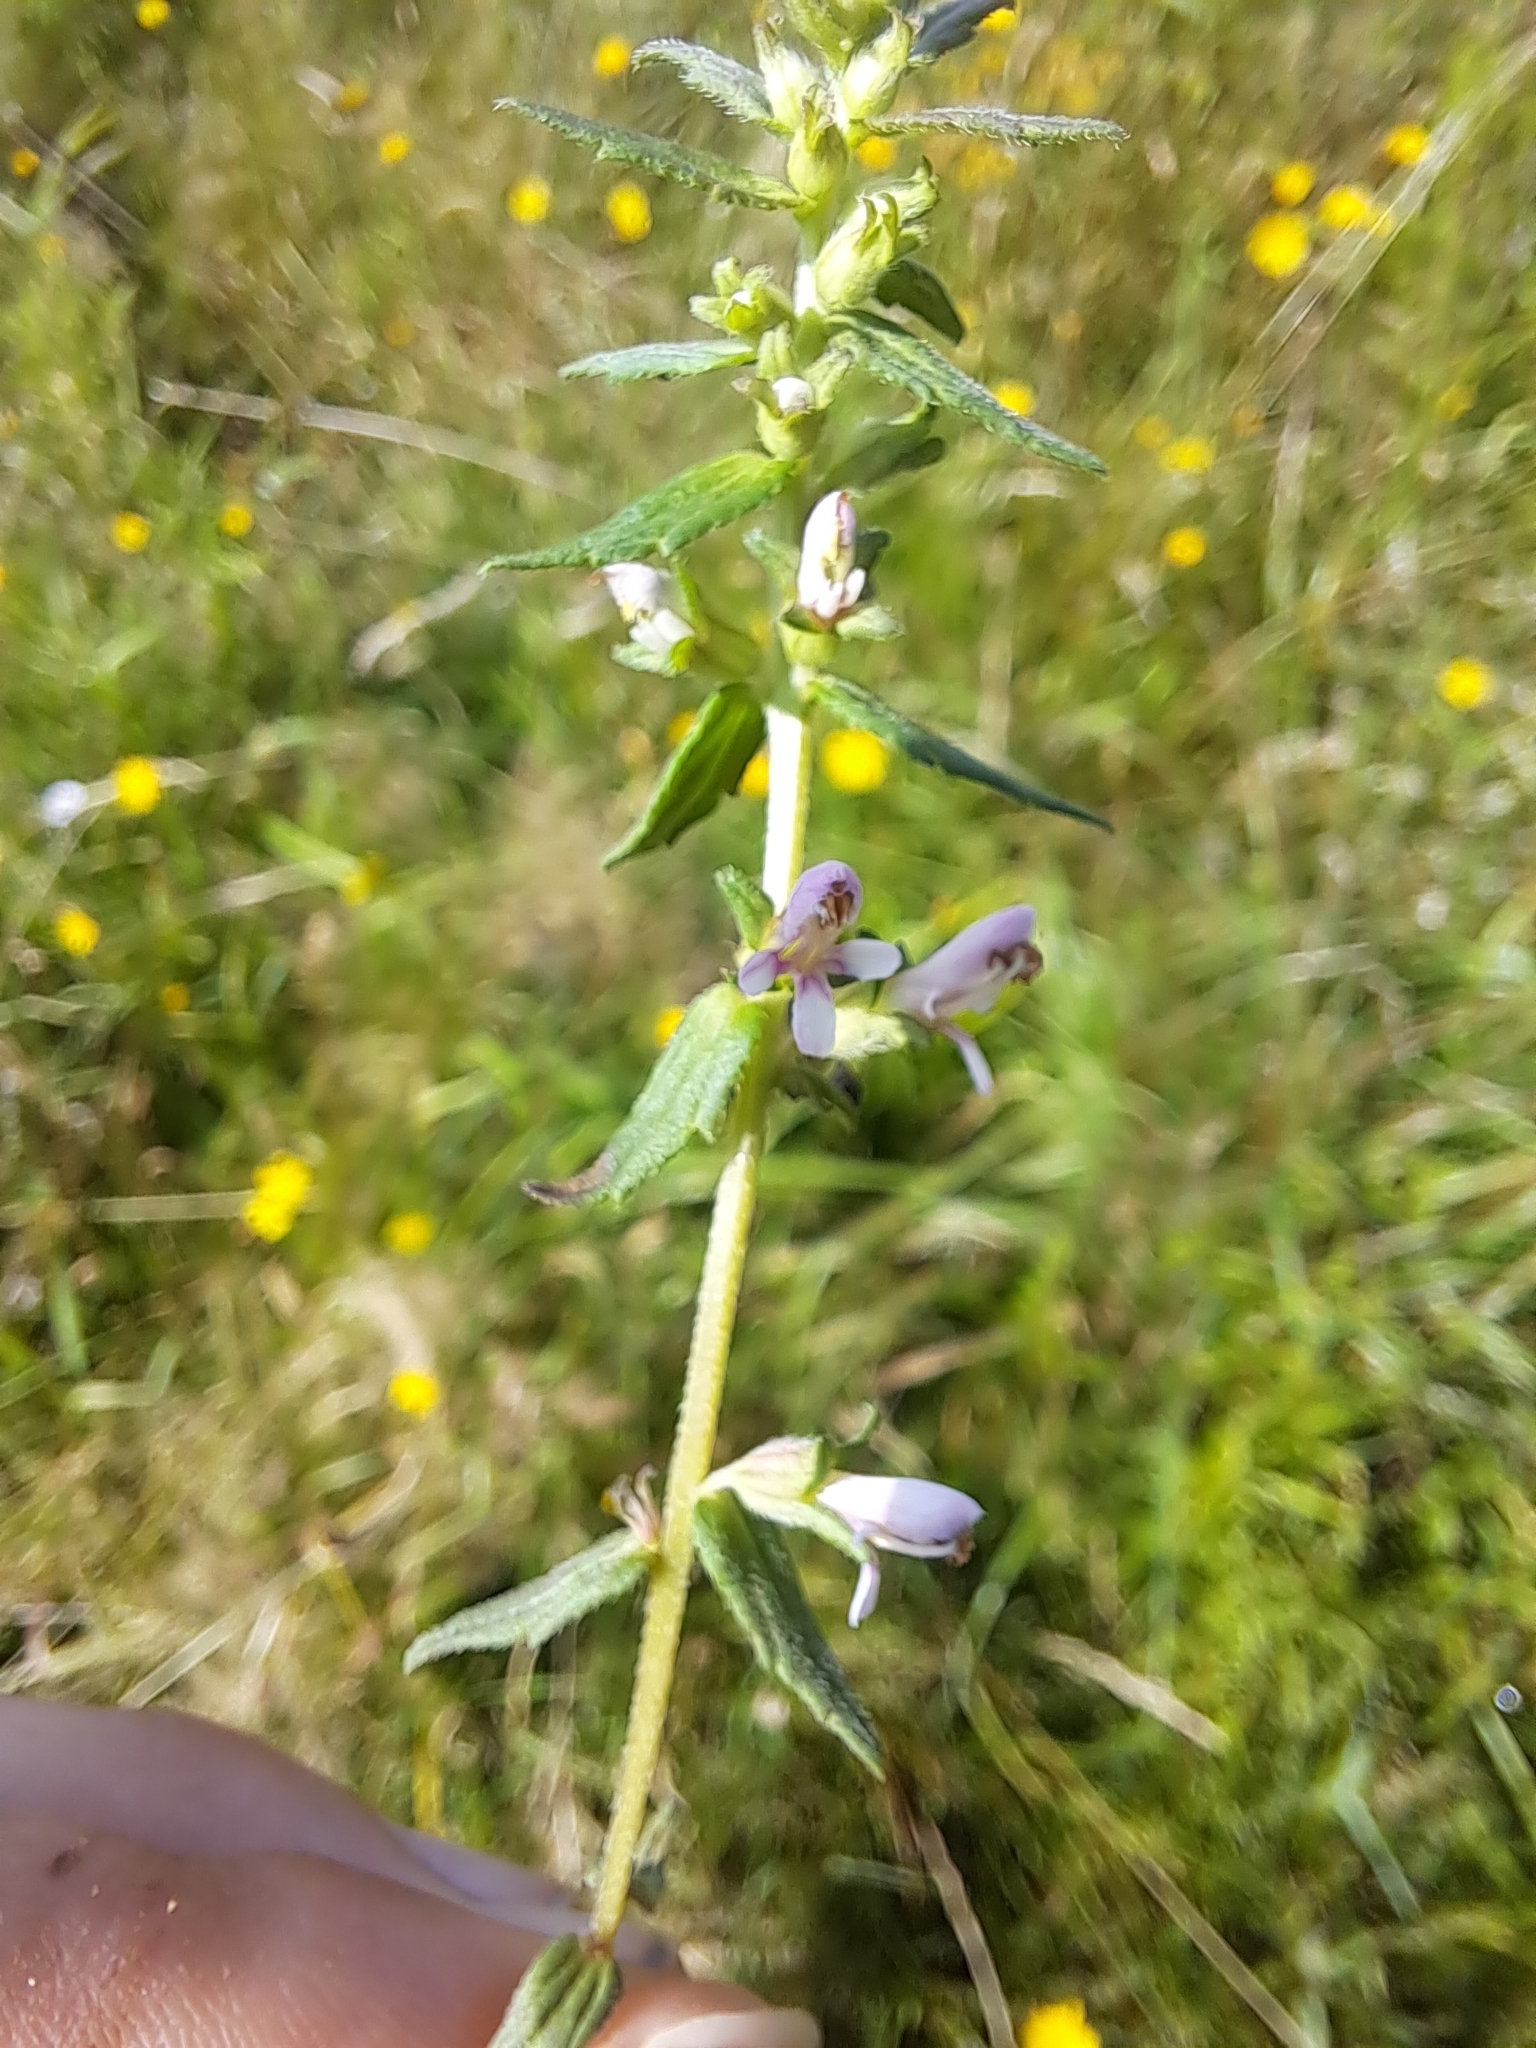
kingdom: Plantae
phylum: Tracheophyta
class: Magnoliopsida
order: Lamiales
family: Orobanchaceae
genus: Odontites
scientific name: Odontites vulgaris
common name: Broomrape
